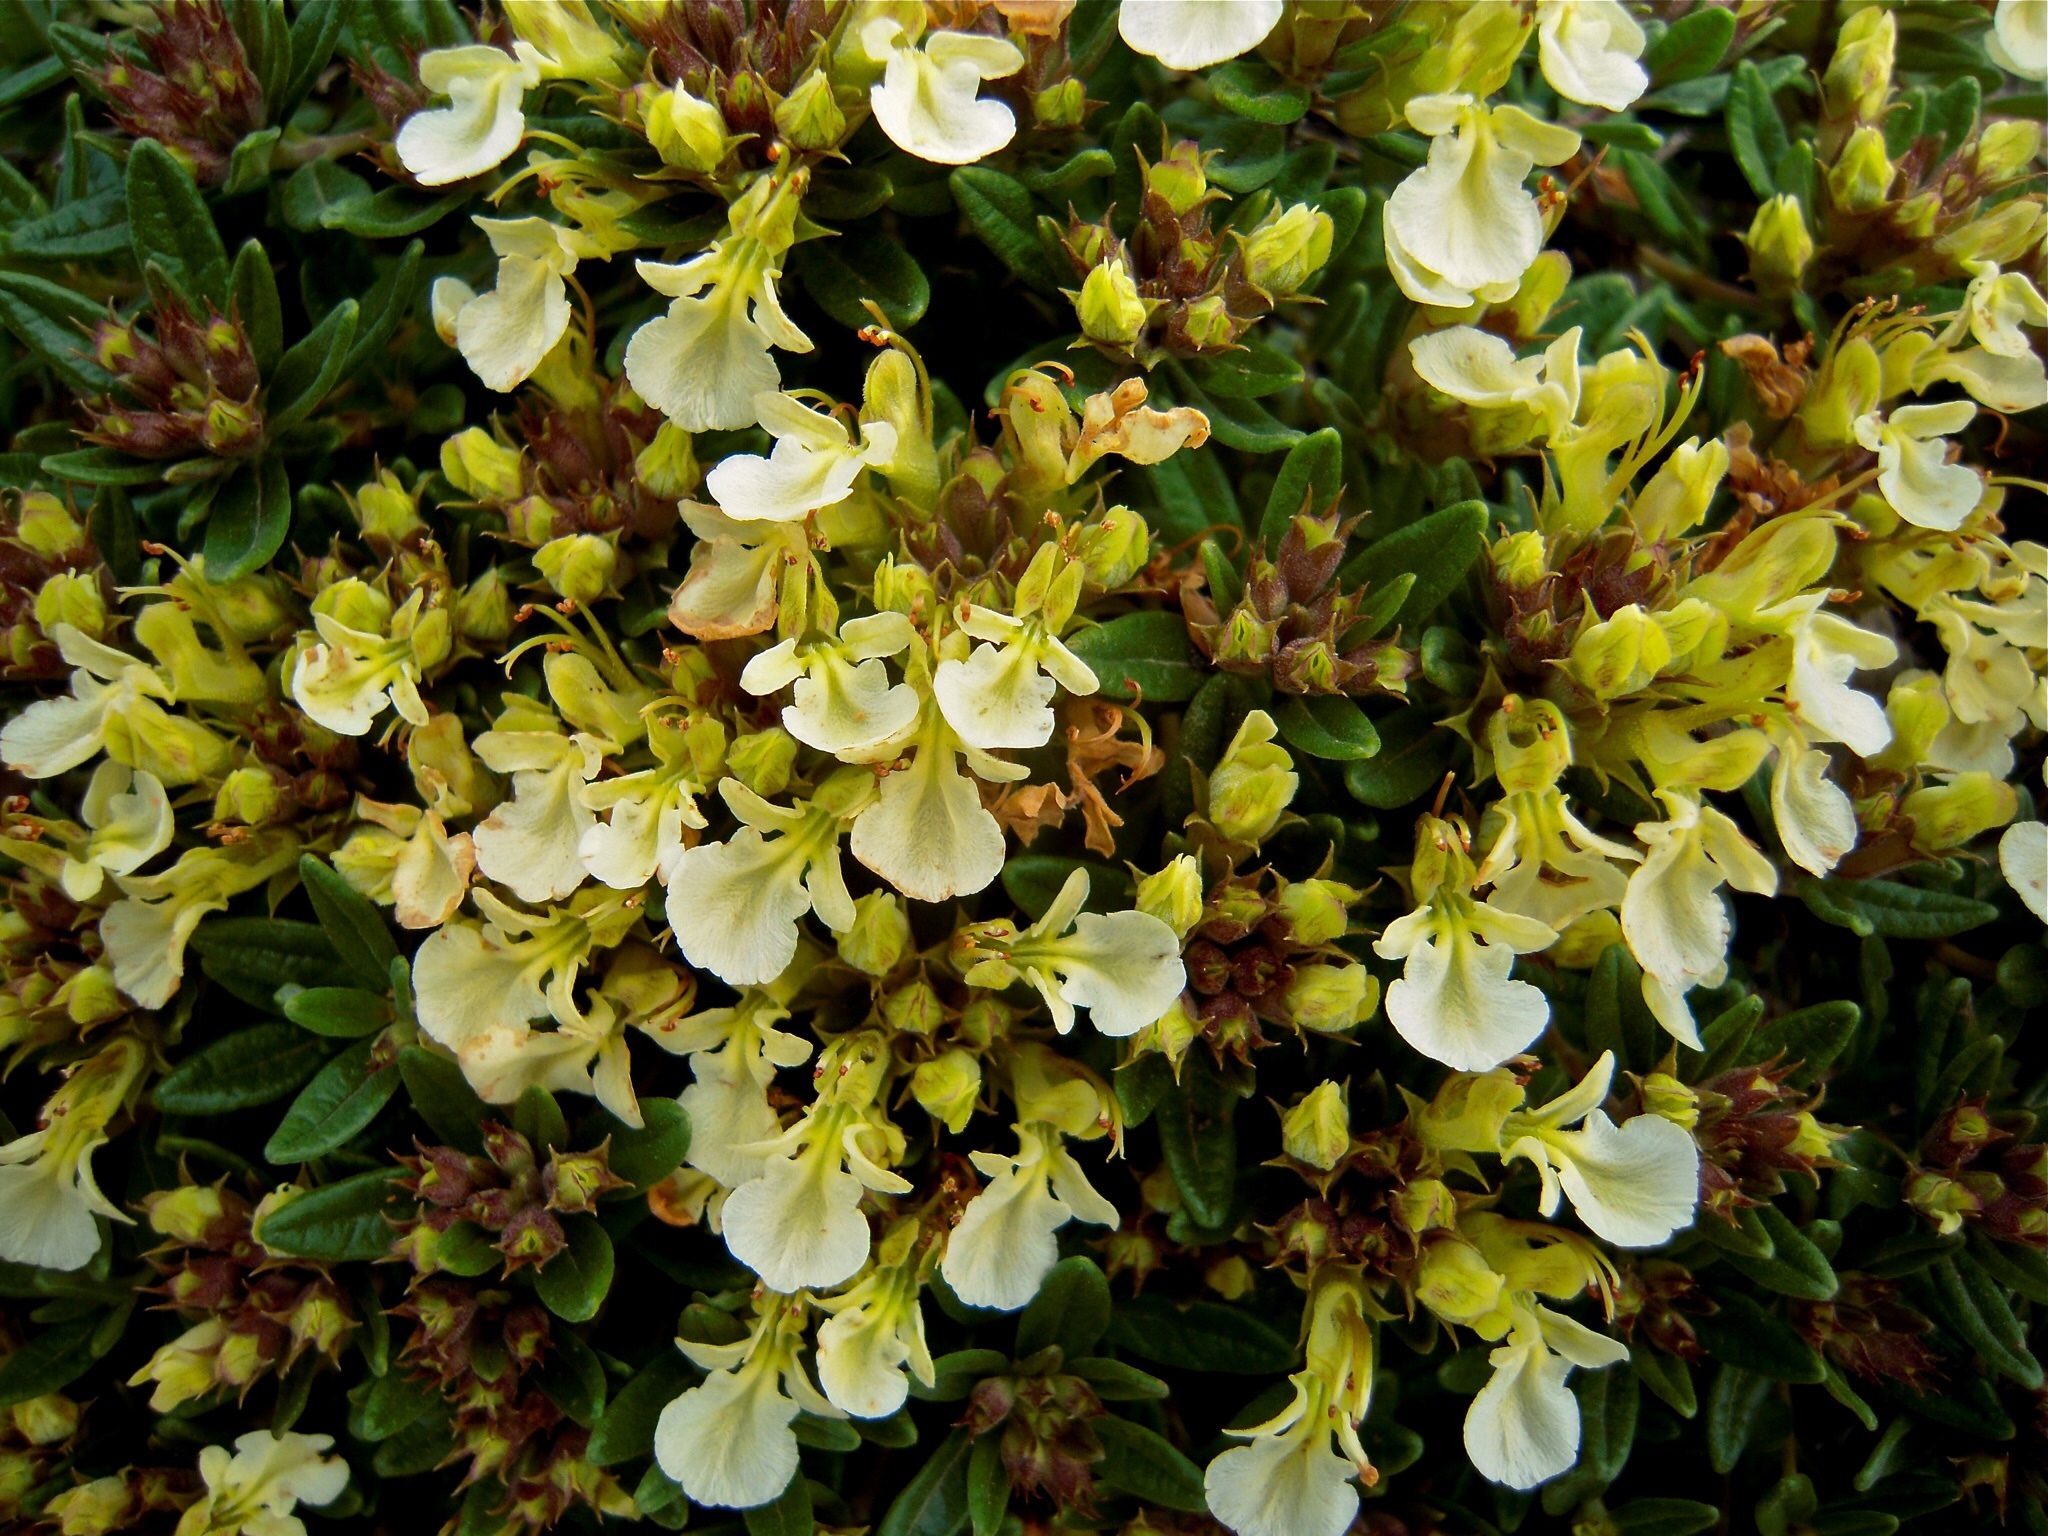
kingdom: Plantae
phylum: Tracheophyta
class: Magnoliopsida
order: Lamiales
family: Lamiaceae
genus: Teucrium
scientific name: Teucrium montanum
